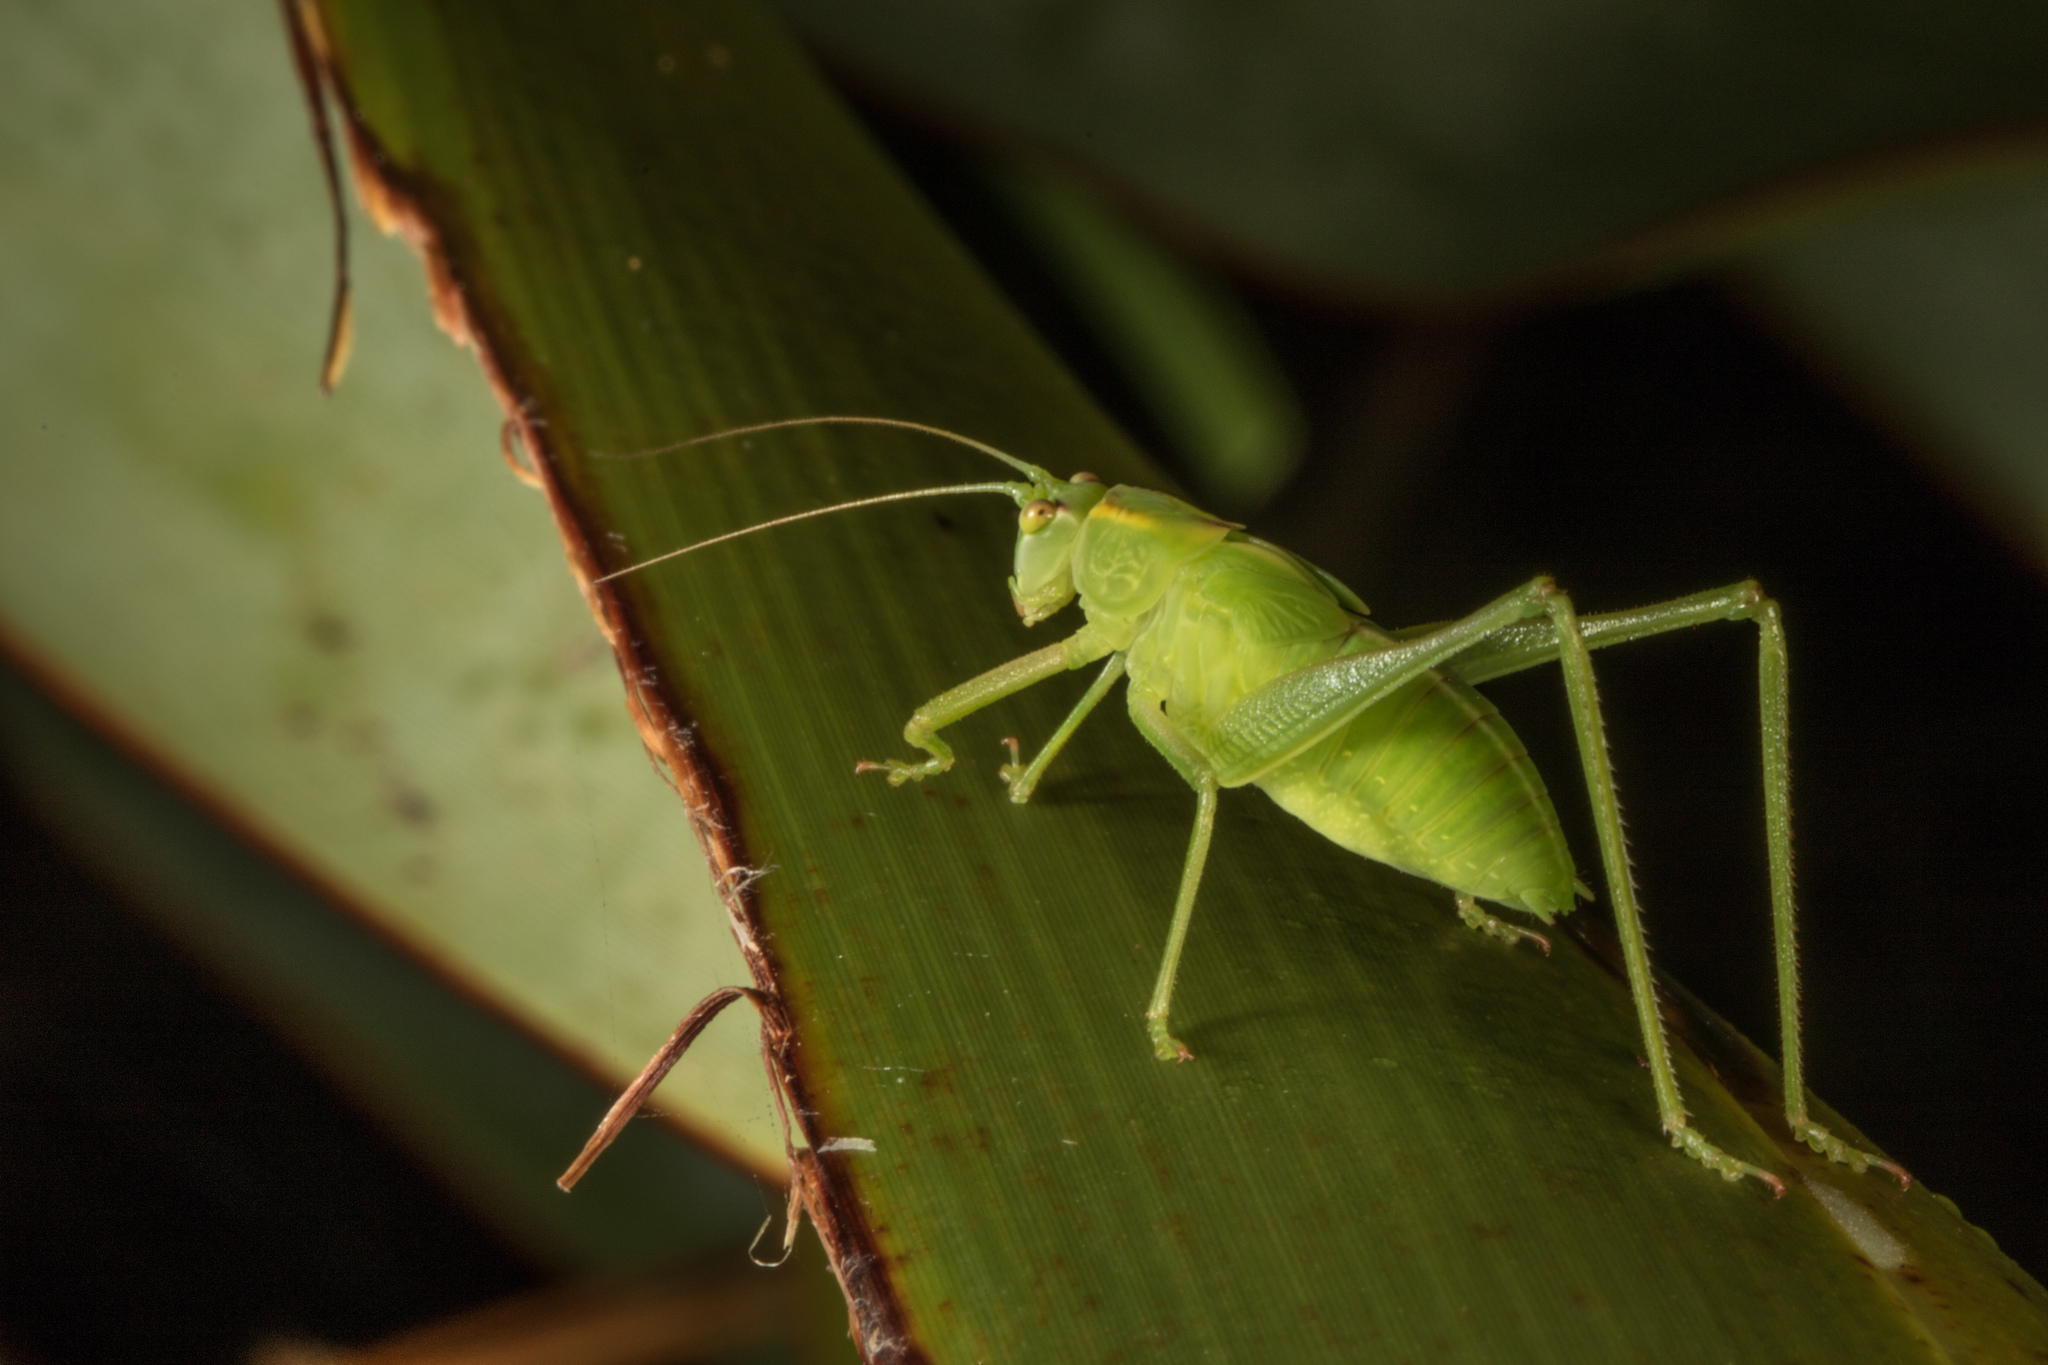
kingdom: Animalia
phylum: Arthropoda
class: Insecta
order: Orthoptera
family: Tettigoniidae
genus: Caedicia
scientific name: Caedicia simplex
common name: Common garden katydid
